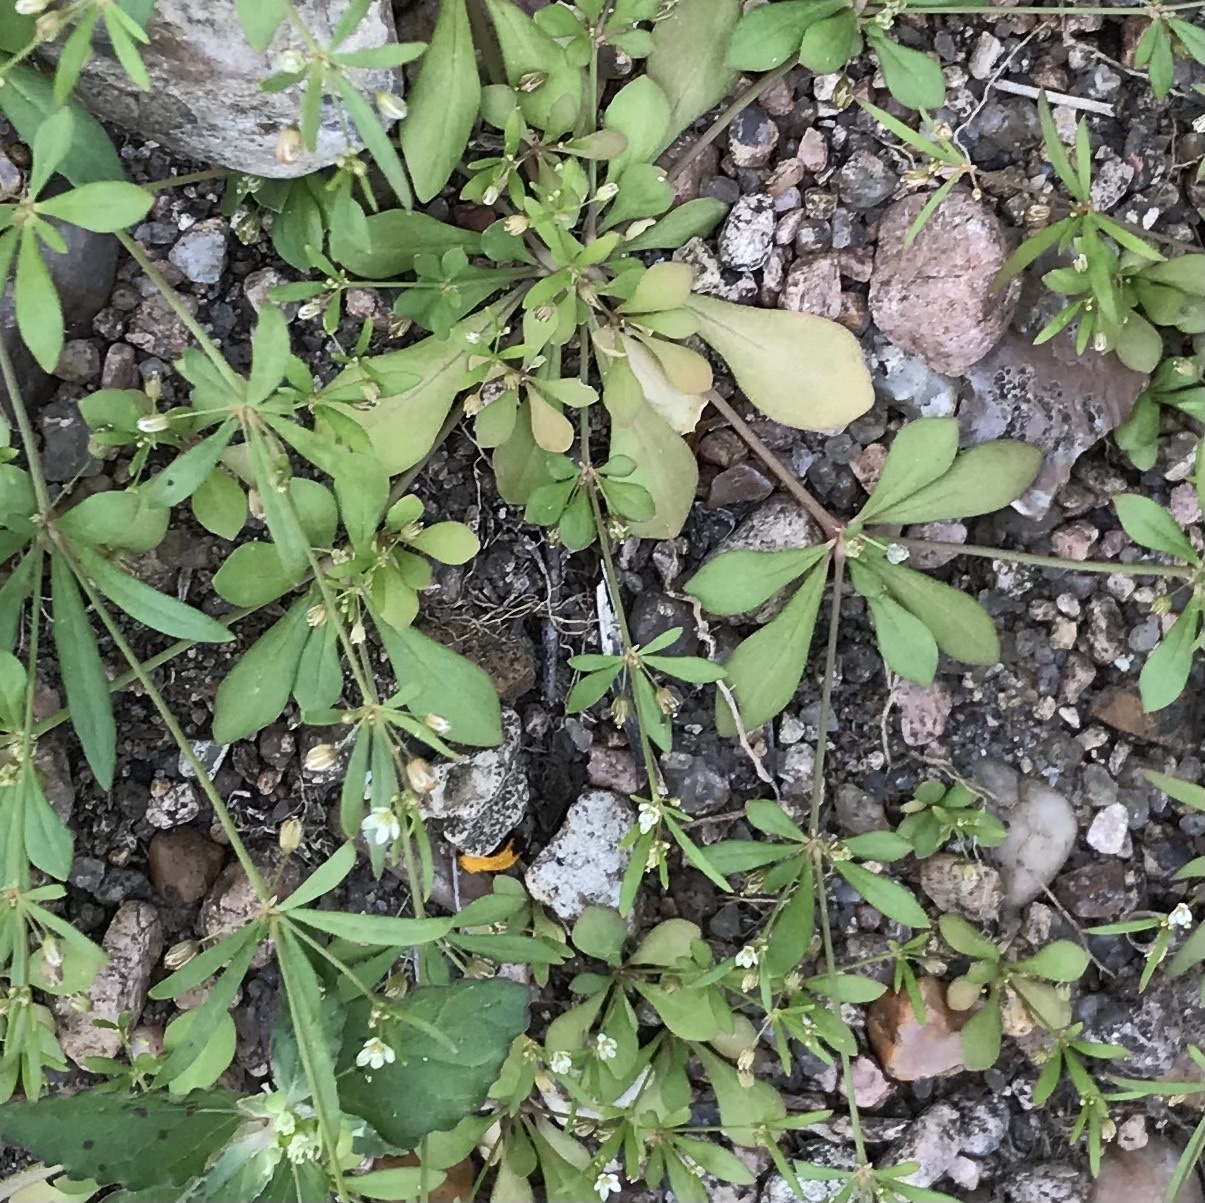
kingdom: Plantae
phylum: Tracheophyta
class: Magnoliopsida
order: Caryophyllales
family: Molluginaceae
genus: Mollugo
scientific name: Mollugo verticillata
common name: Green carpetweed
